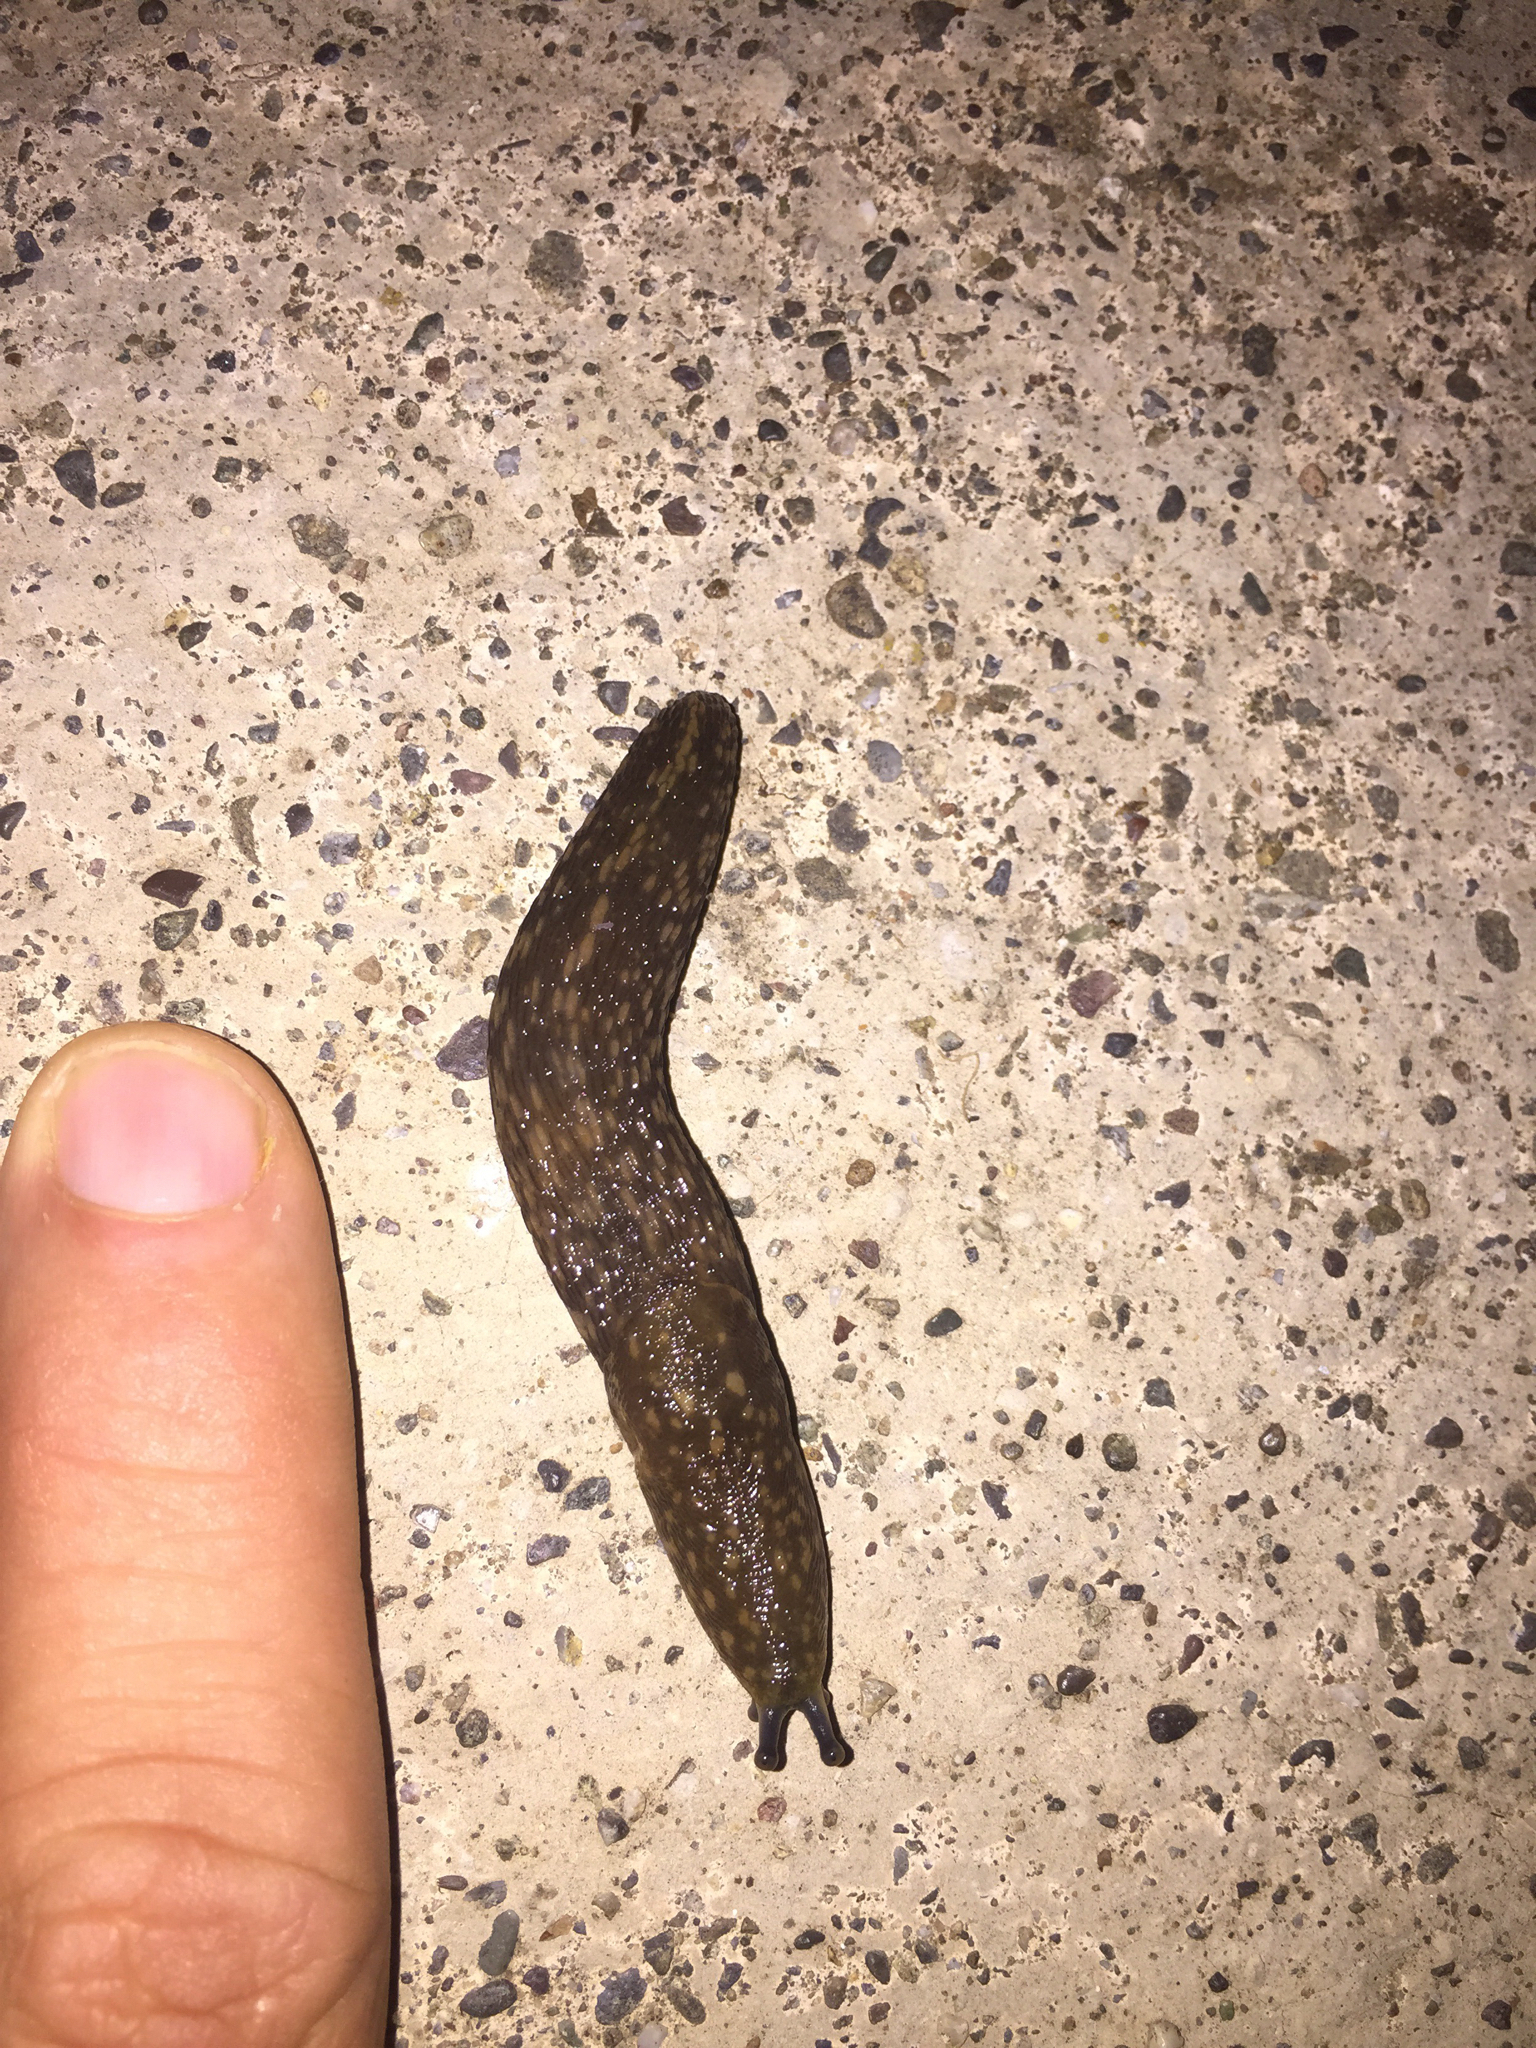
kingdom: Animalia
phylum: Mollusca
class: Gastropoda
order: Stylommatophora
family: Limacidae
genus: Limacus
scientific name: Limacus flavus
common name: Yellow gardenslug
